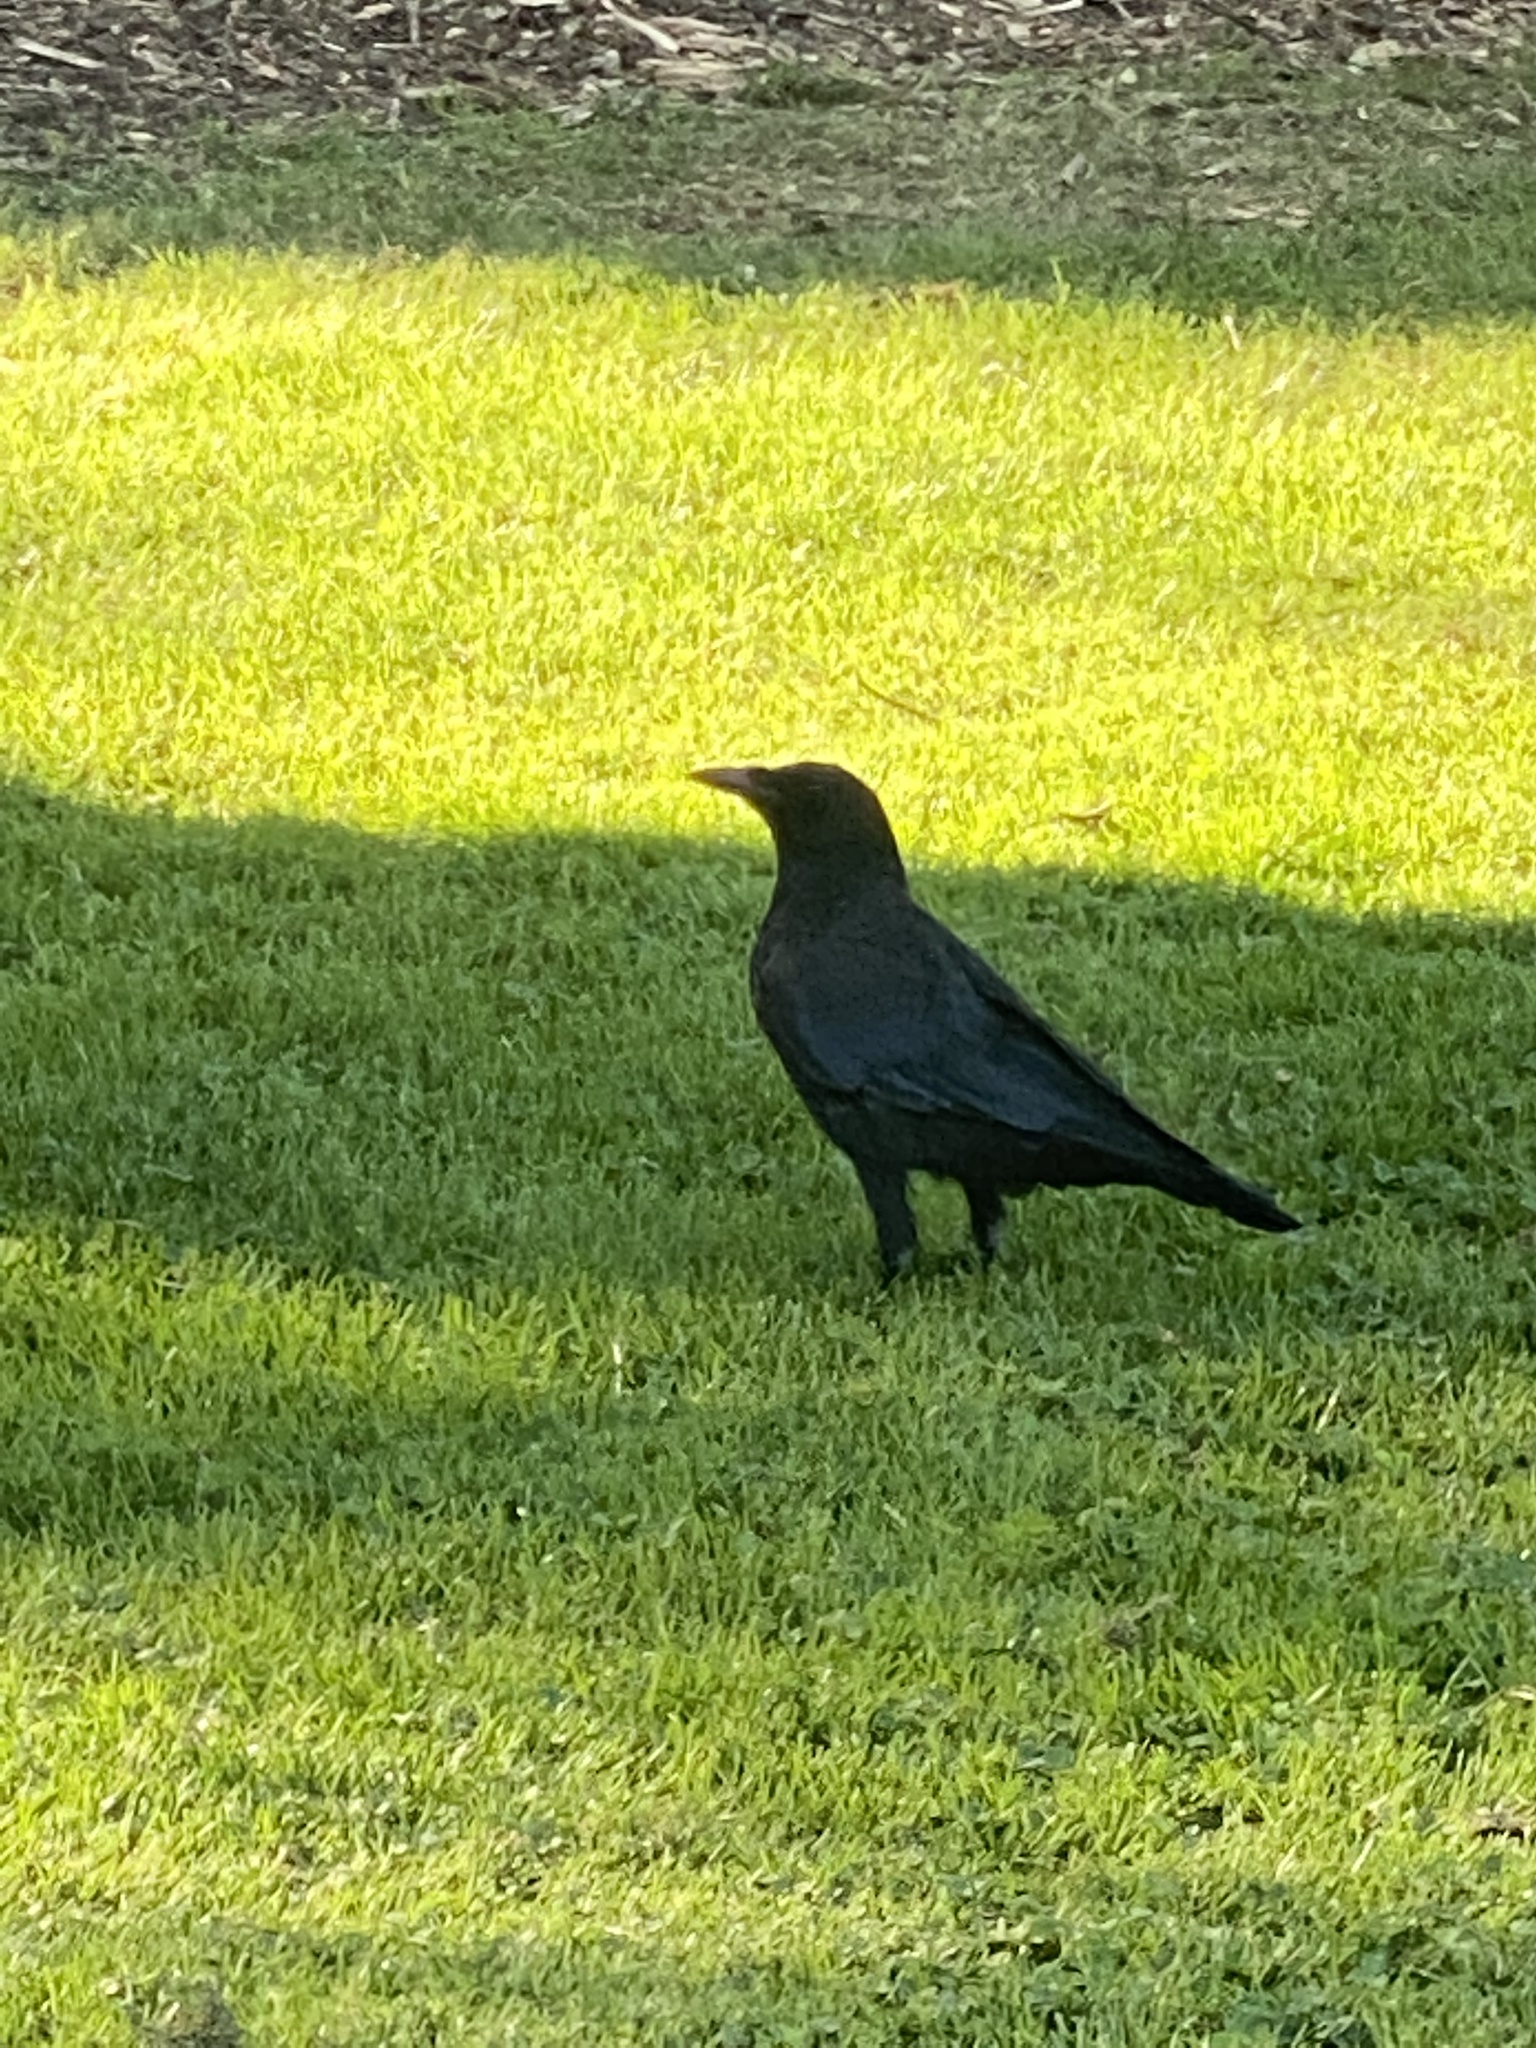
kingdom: Animalia
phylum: Chordata
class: Aves
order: Passeriformes
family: Corvidae
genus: Corvus
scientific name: Corvus brachyrhynchos
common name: American crow
